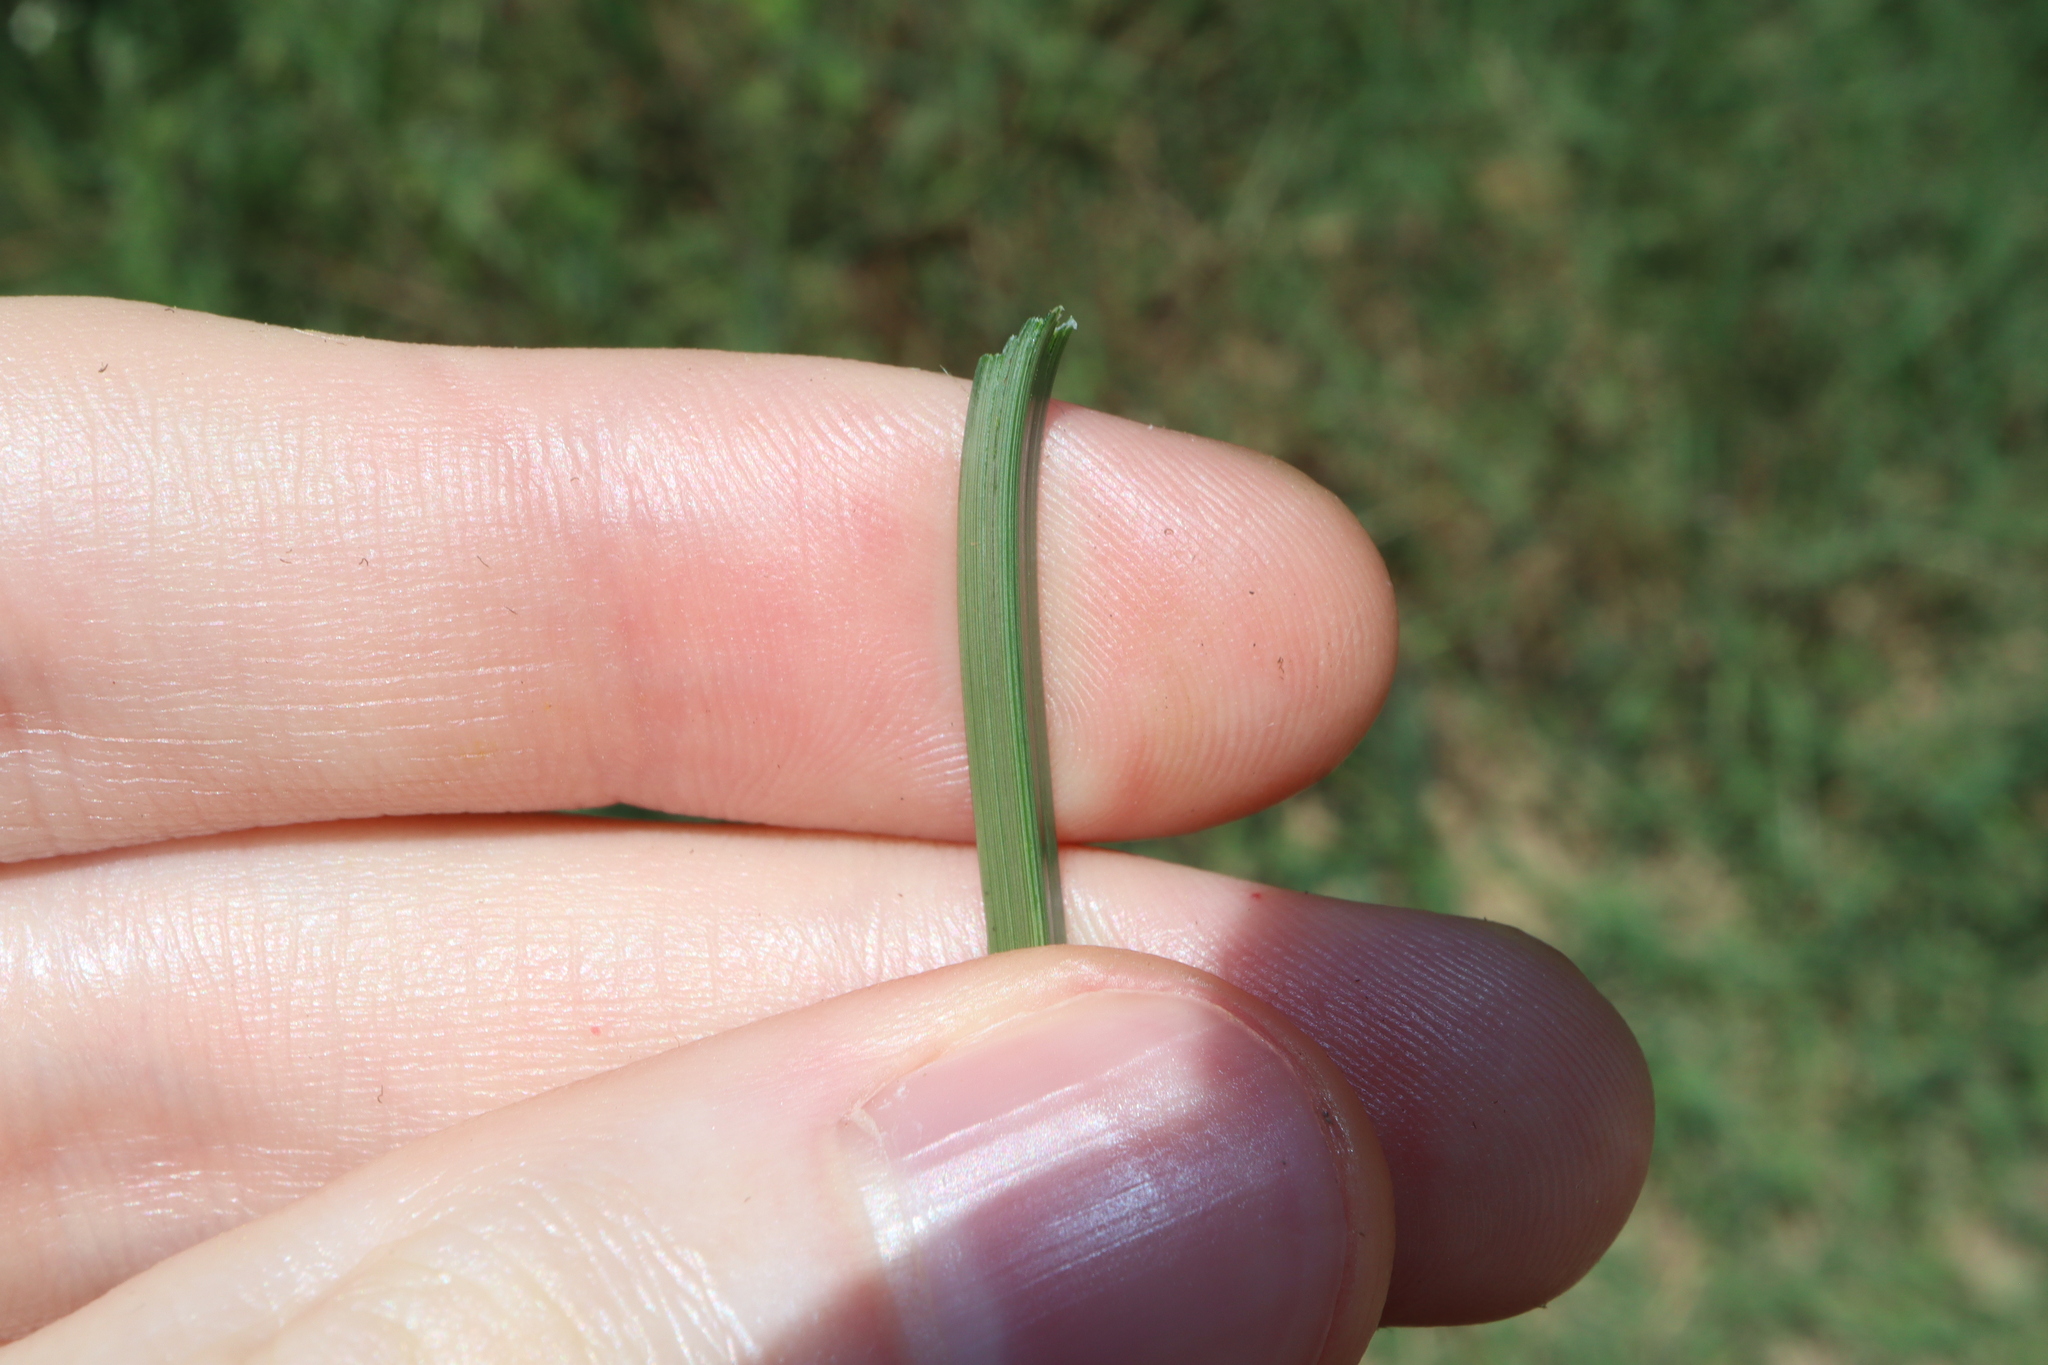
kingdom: Plantae
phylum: Tracheophyta
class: Liliopsida
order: Poales
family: Cyperaceae
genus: Cyperus
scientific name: Cyperus rotundus
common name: Nutgrass
